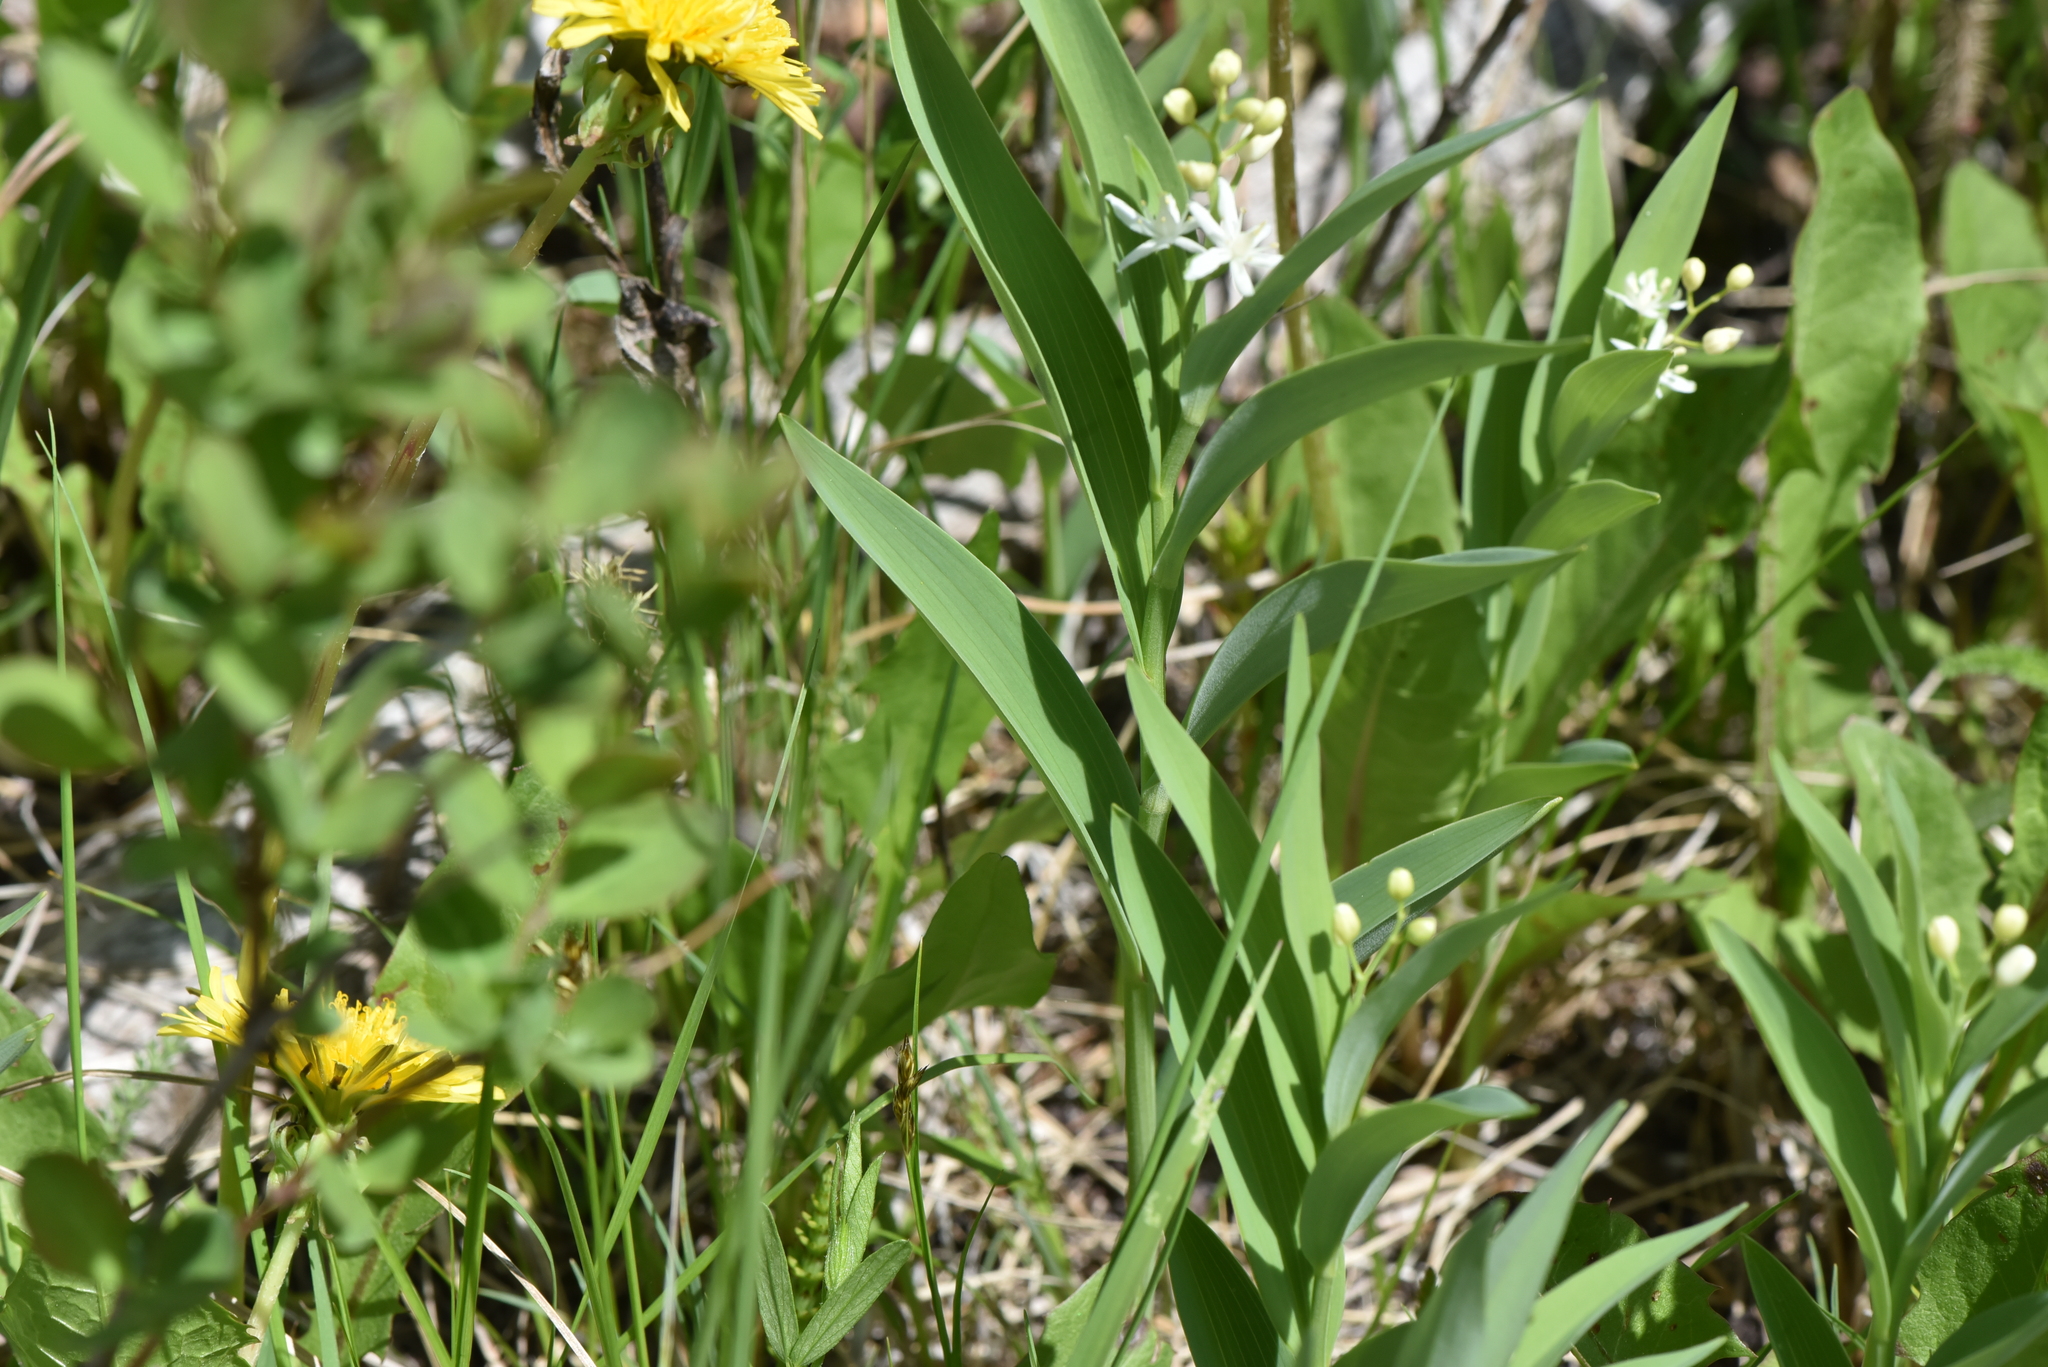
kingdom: Plantae
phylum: Tracheophyta
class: Liliopsida
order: Asparagales
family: Asparagaceae
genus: Maianthemum
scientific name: Maianthemum stellatum
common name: Little false solomon's seal
